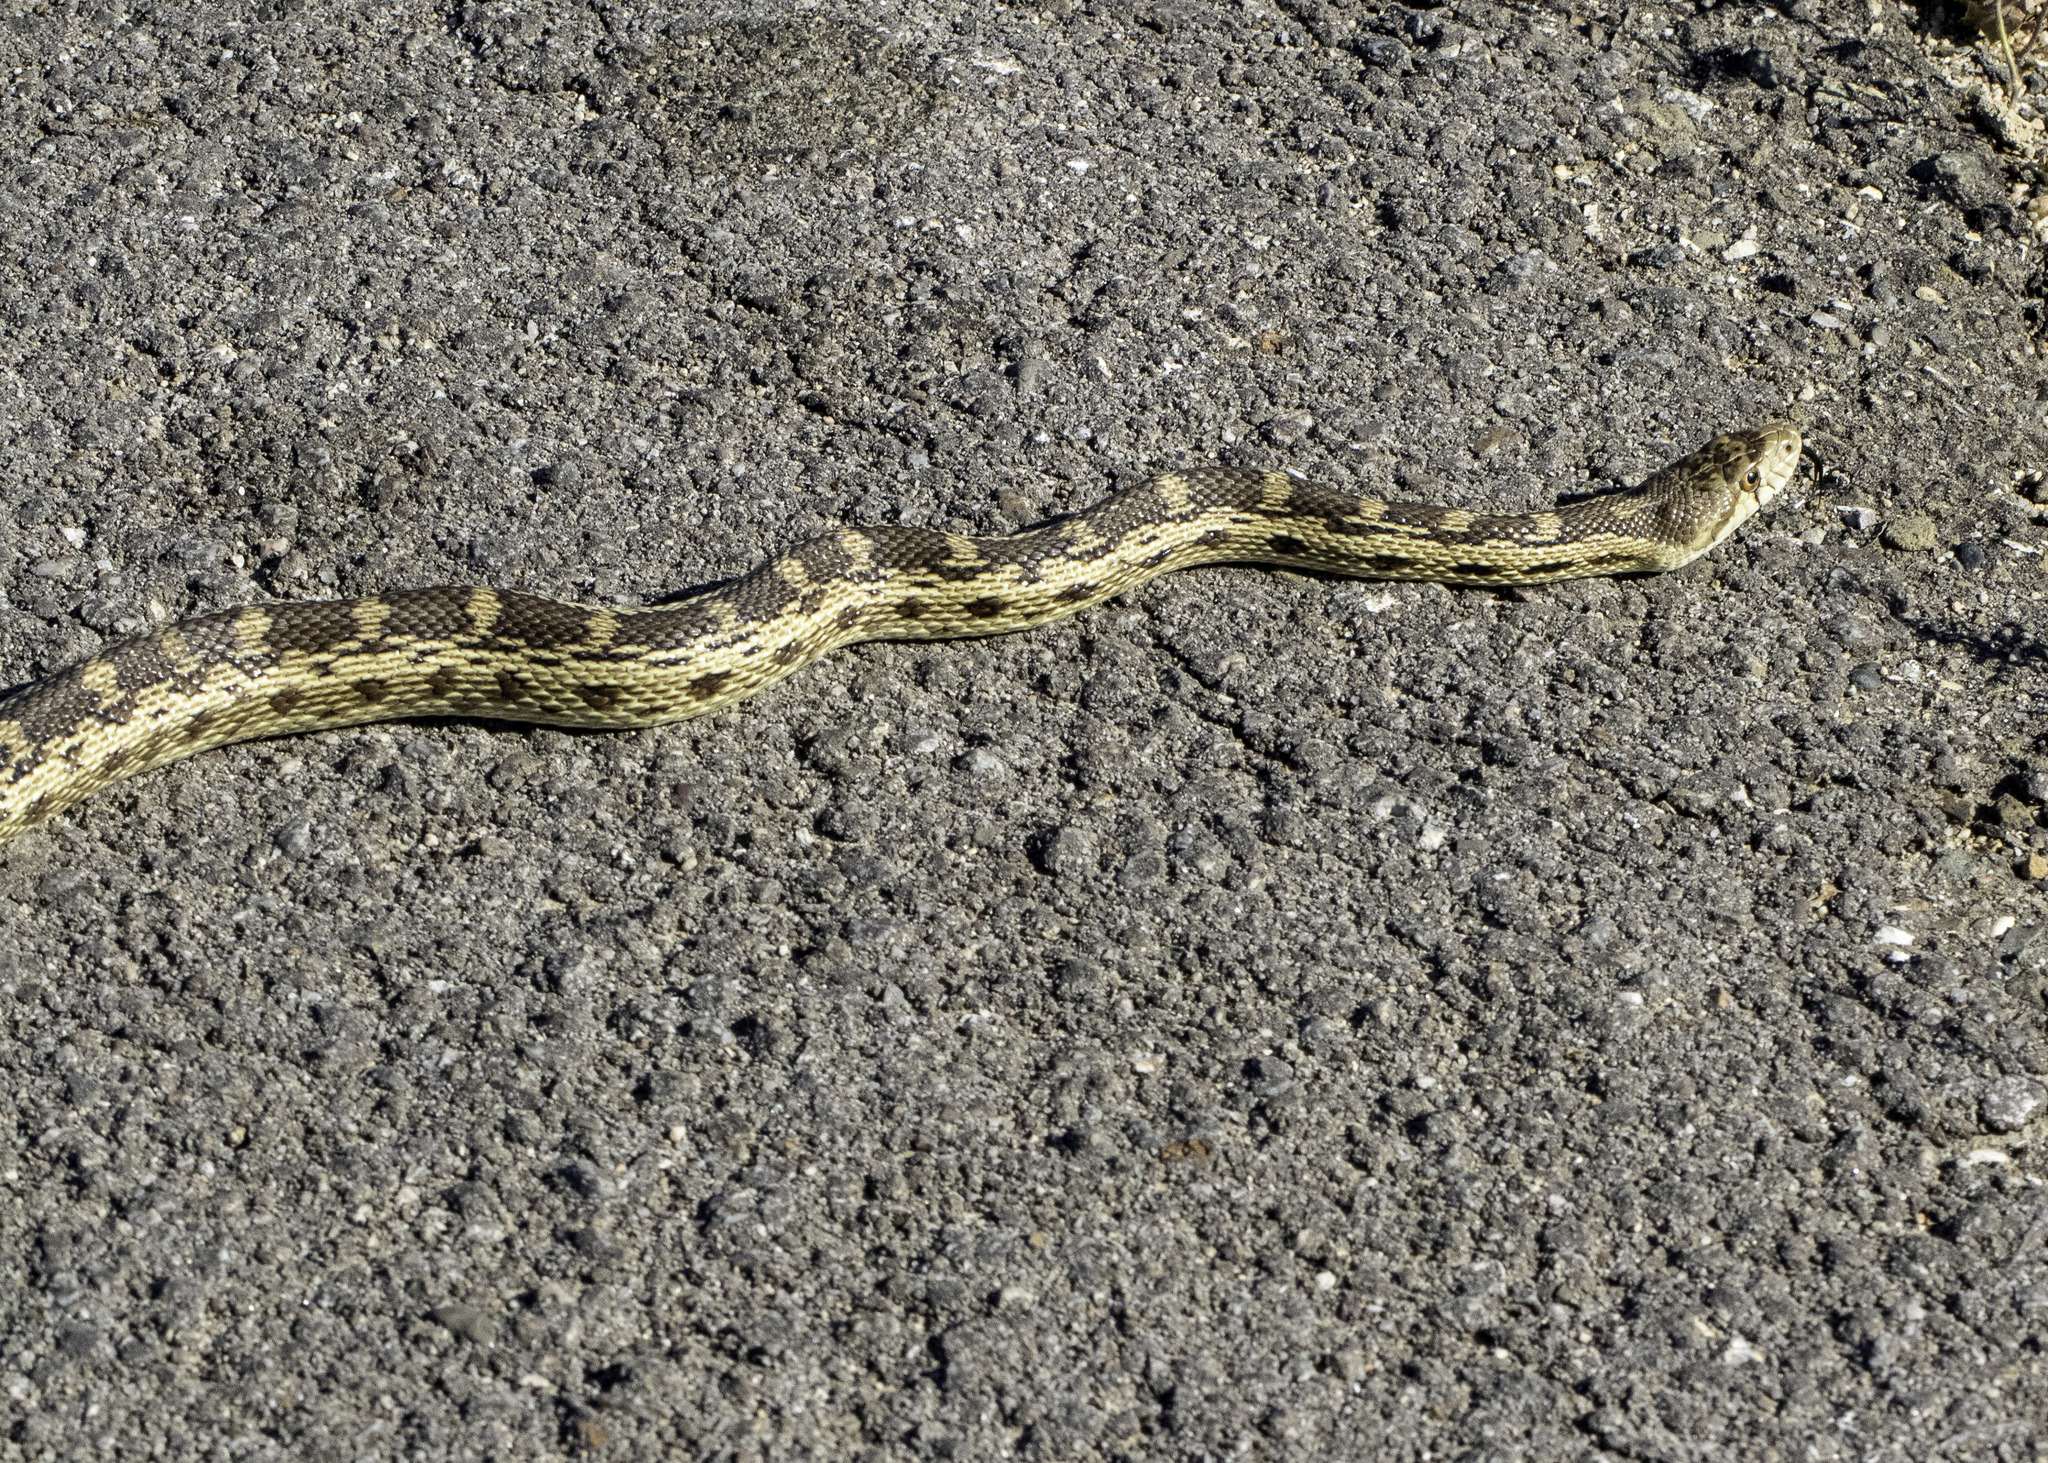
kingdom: Animalia
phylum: Chordata
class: Squamata
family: Colubridae
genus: Pituophis
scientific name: Pituophis catenifer
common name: Gopher snake
